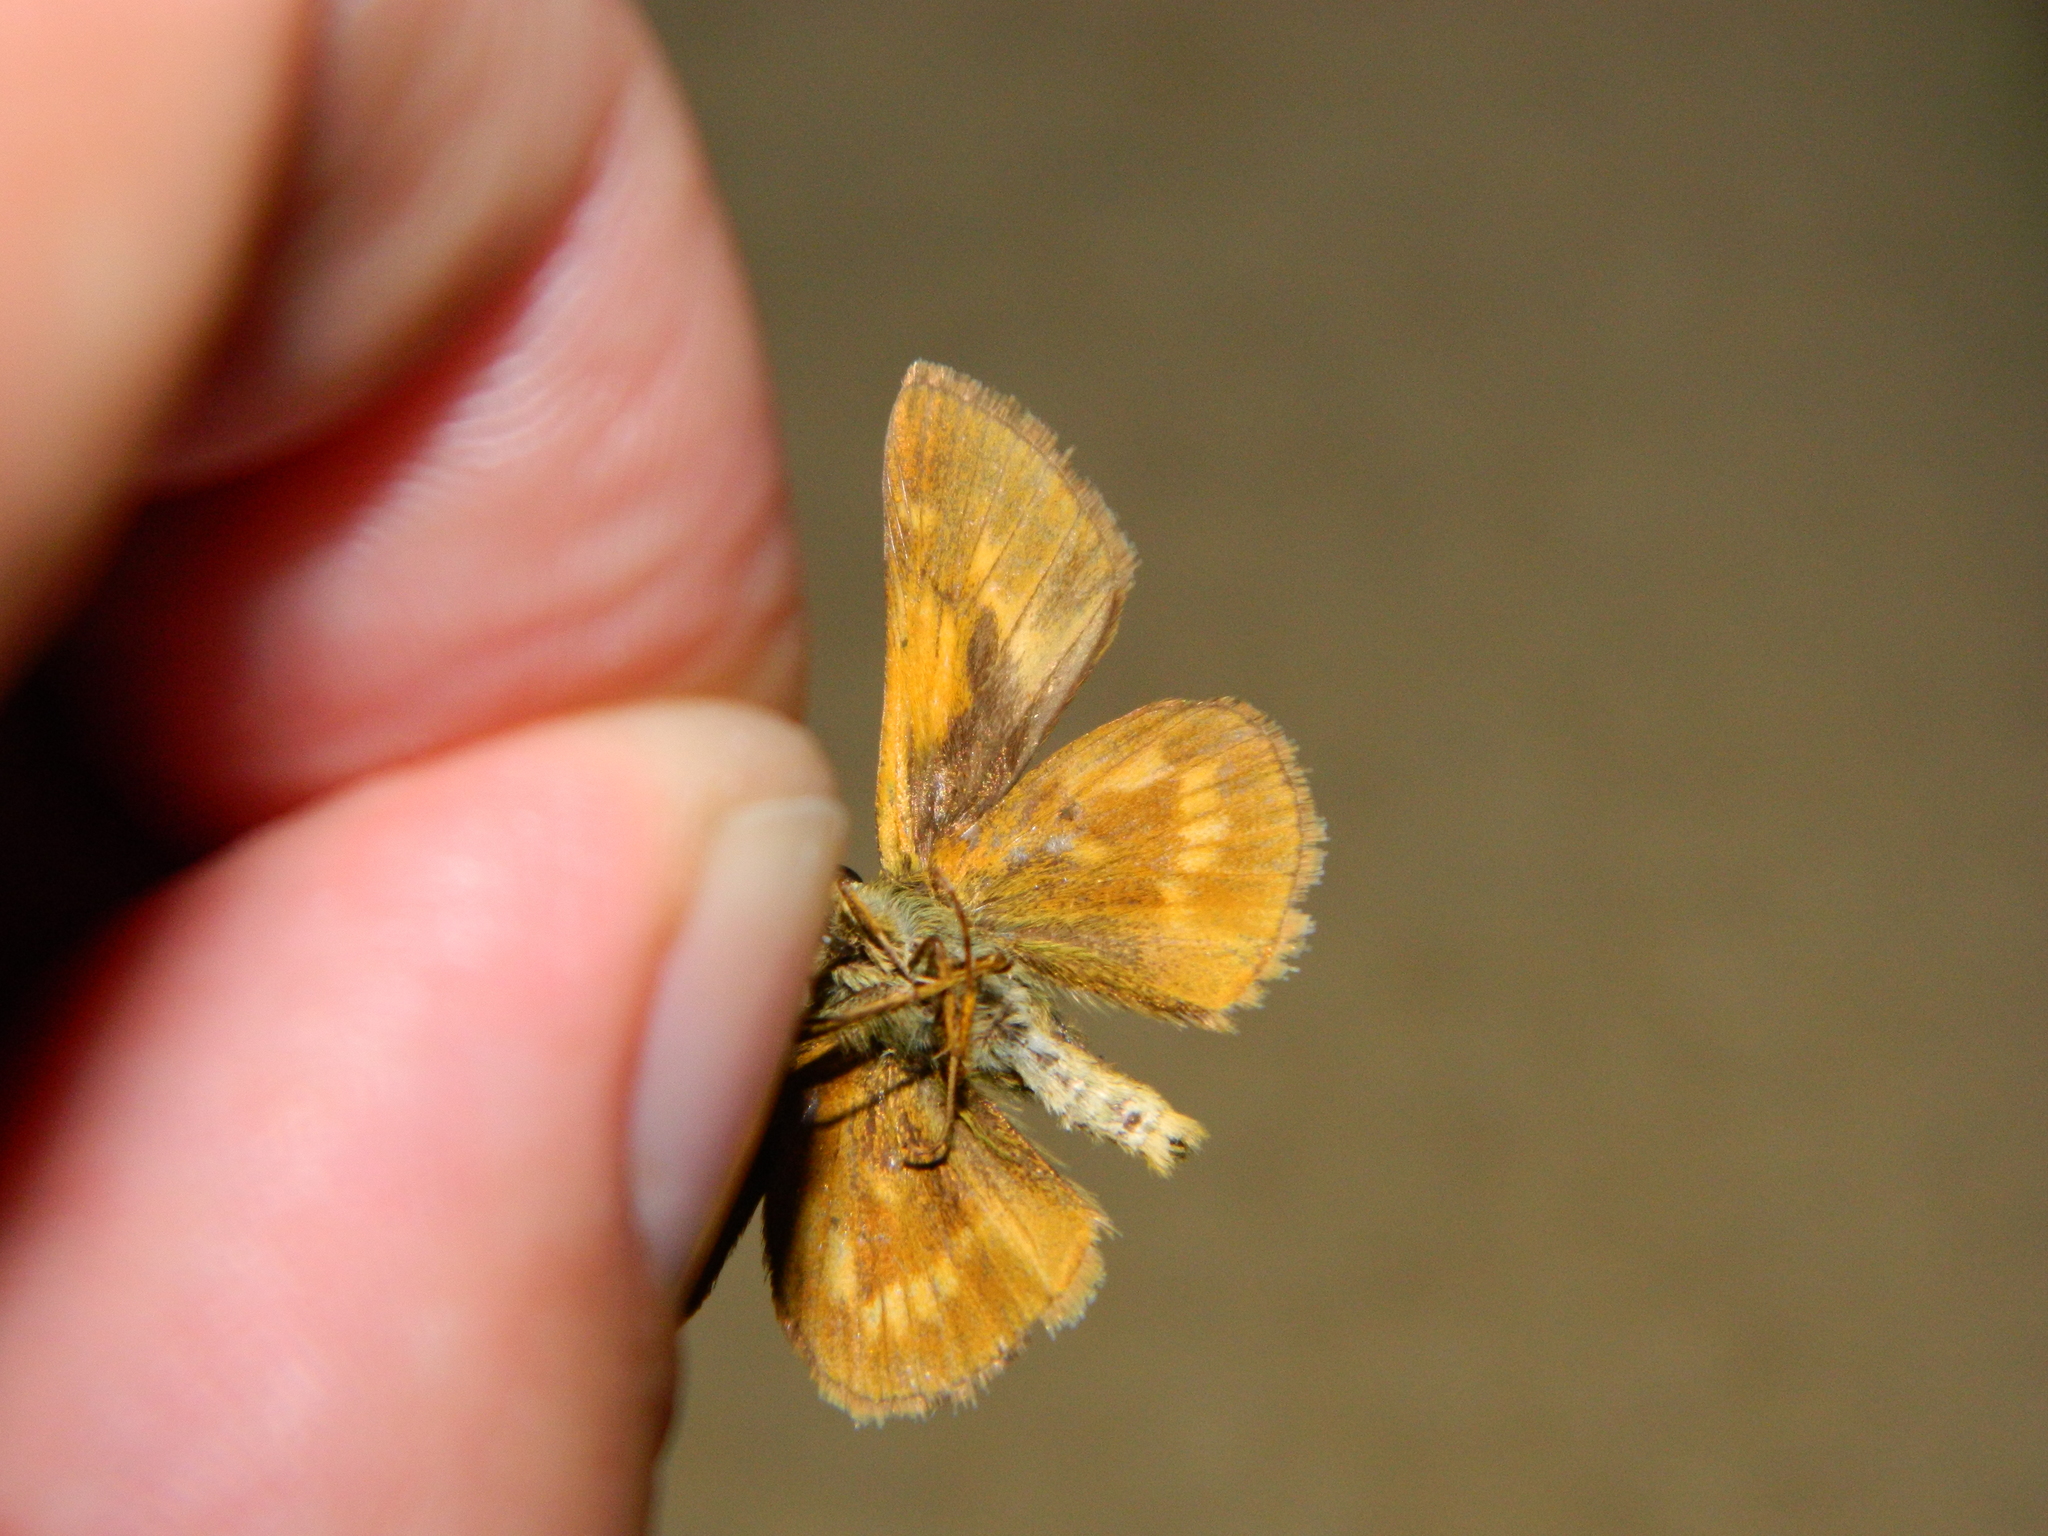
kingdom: Animalia
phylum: Arthropoda
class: Insecta
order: Lepidoptera
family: Hesperiidae
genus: Polites
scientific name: Polites mystic
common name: Long dash
